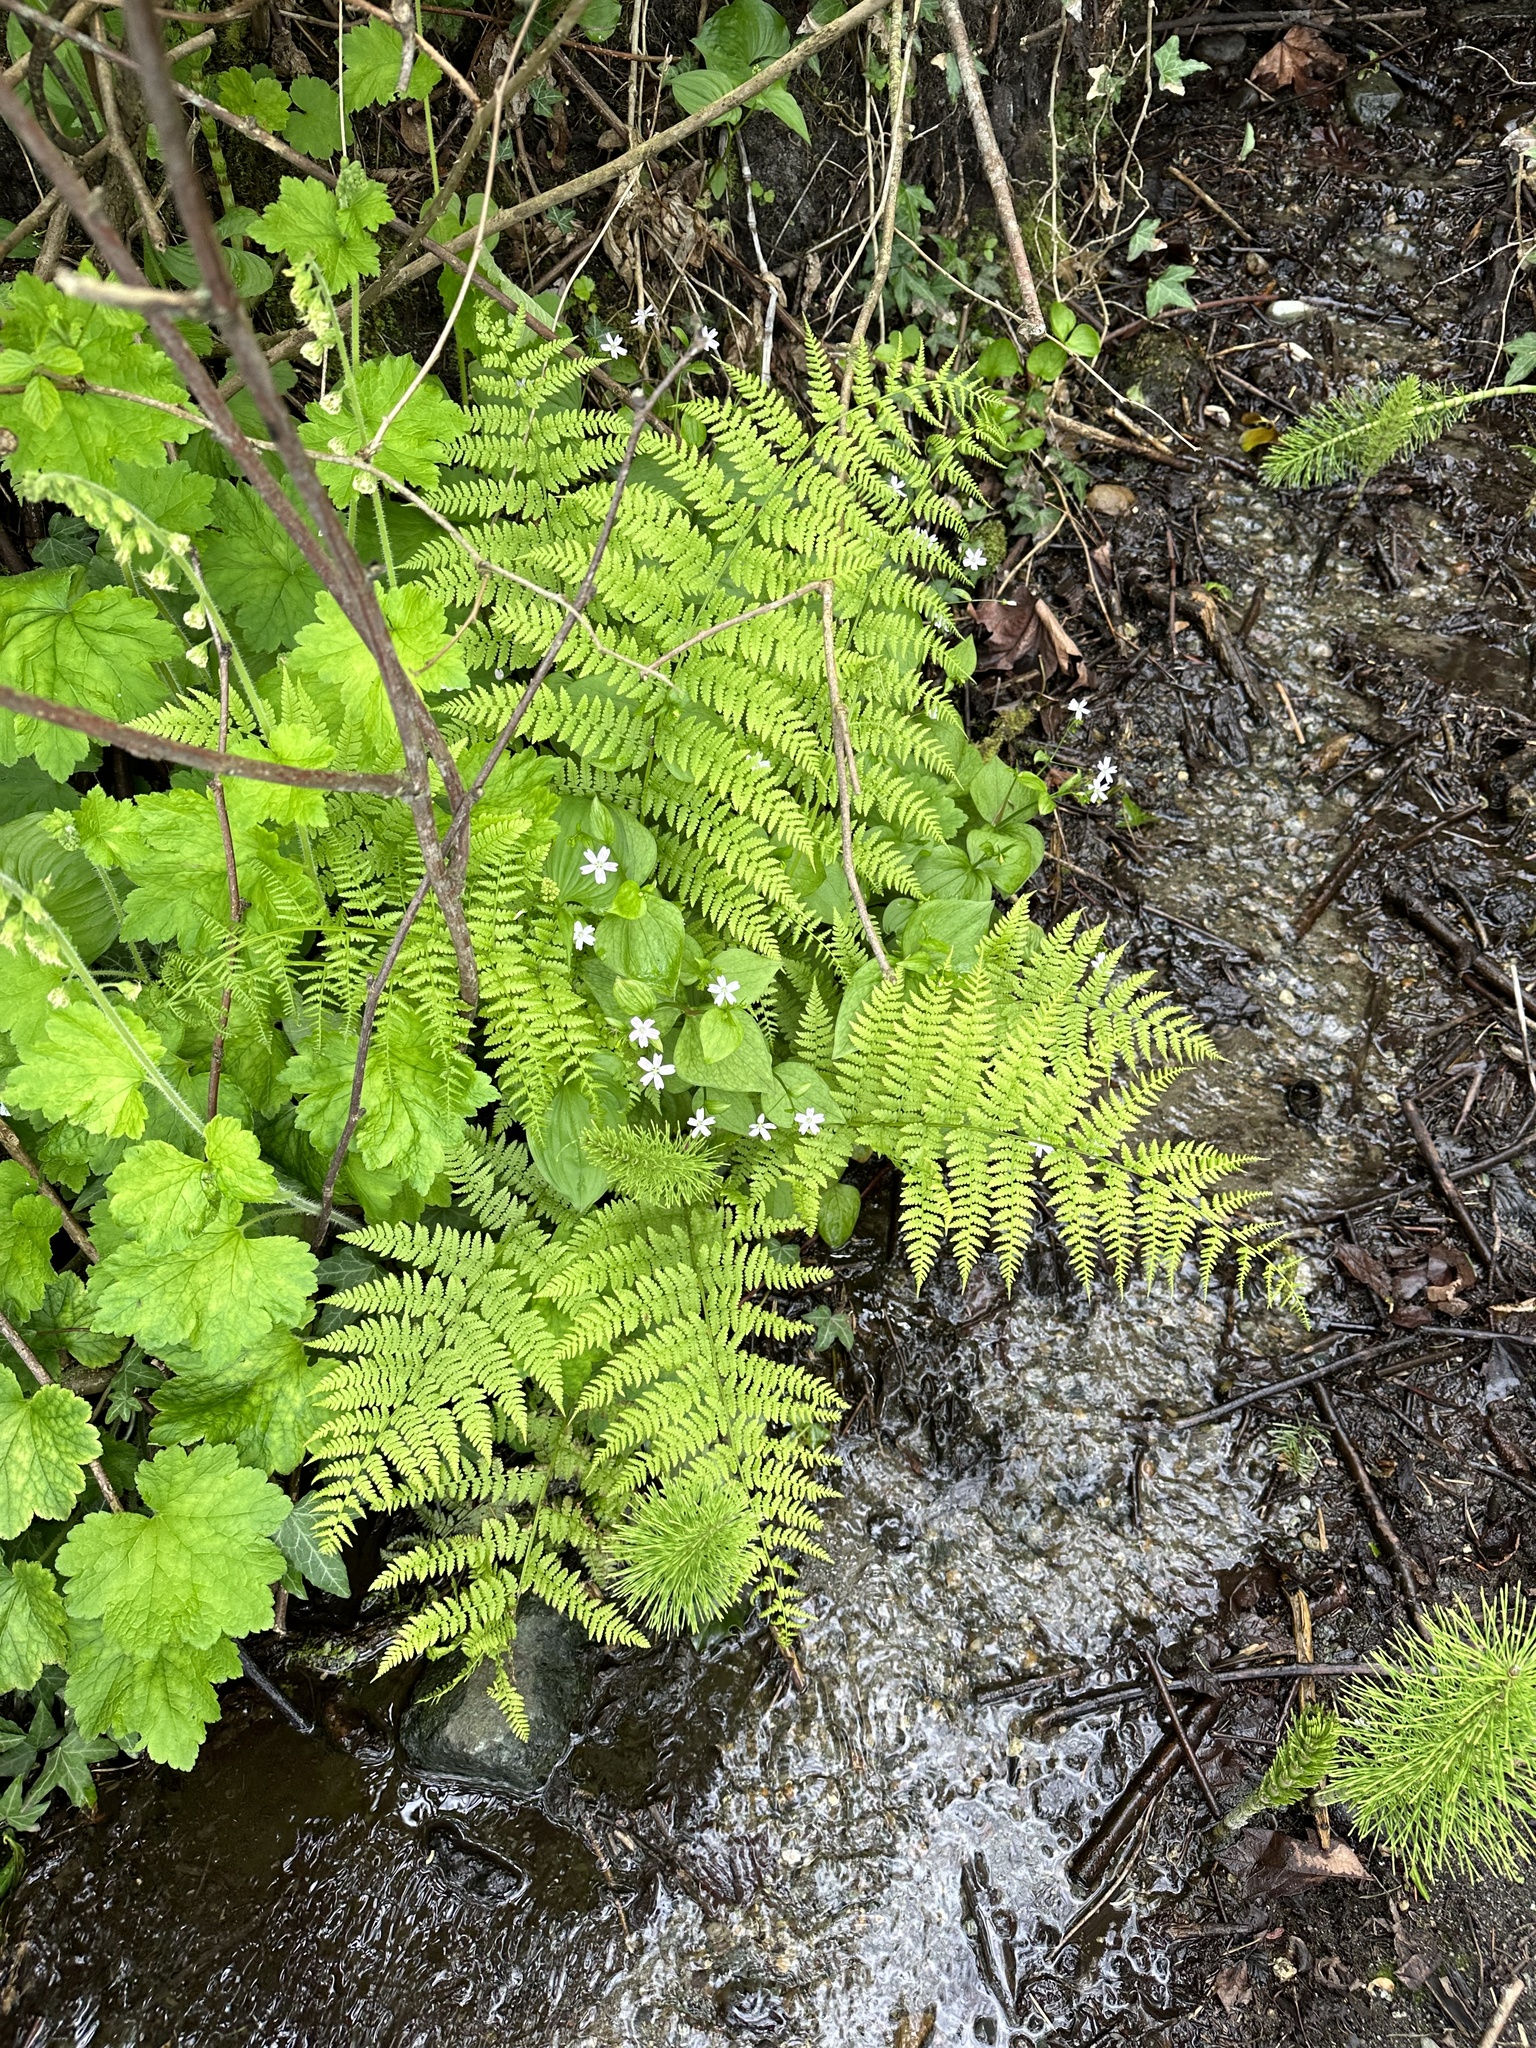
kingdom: Plantae
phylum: Tracheophyta
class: Polypodiopsida
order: Polypodiales
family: Athyriaceae
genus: Athyrium
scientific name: Athyrium filix-femina
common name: Lady fern
